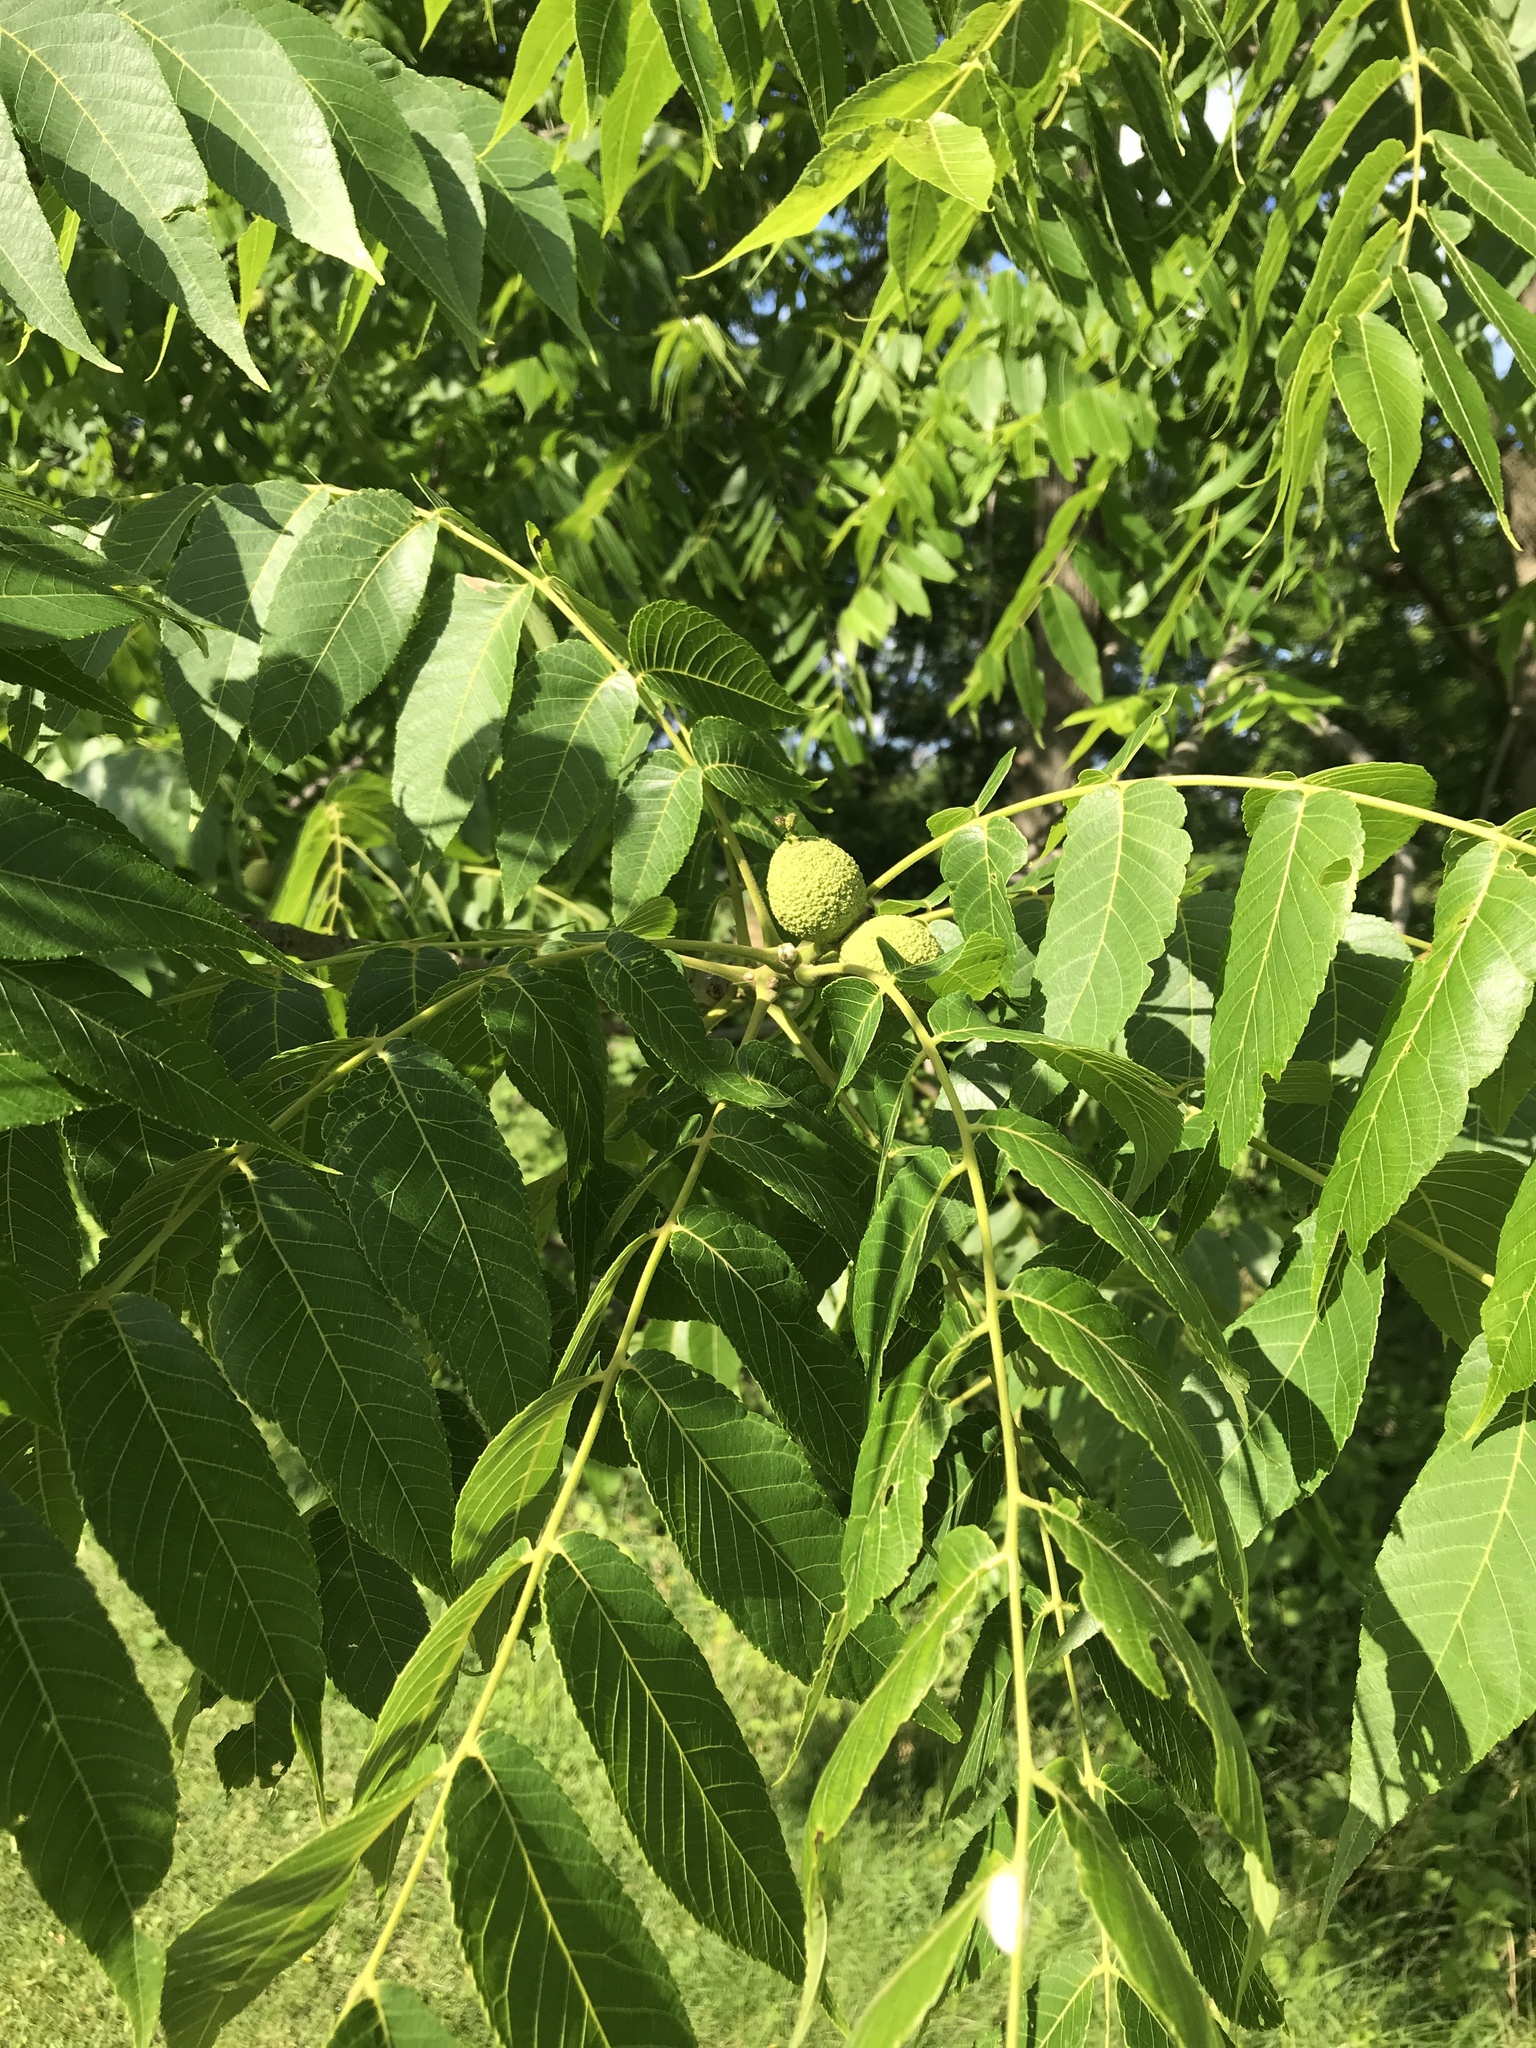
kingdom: Plantae
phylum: Tracheophyta
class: Magnoliopsida
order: Fagales
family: Juglandaceae
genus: Juglans
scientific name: Juglans nigra
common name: Black walnut
